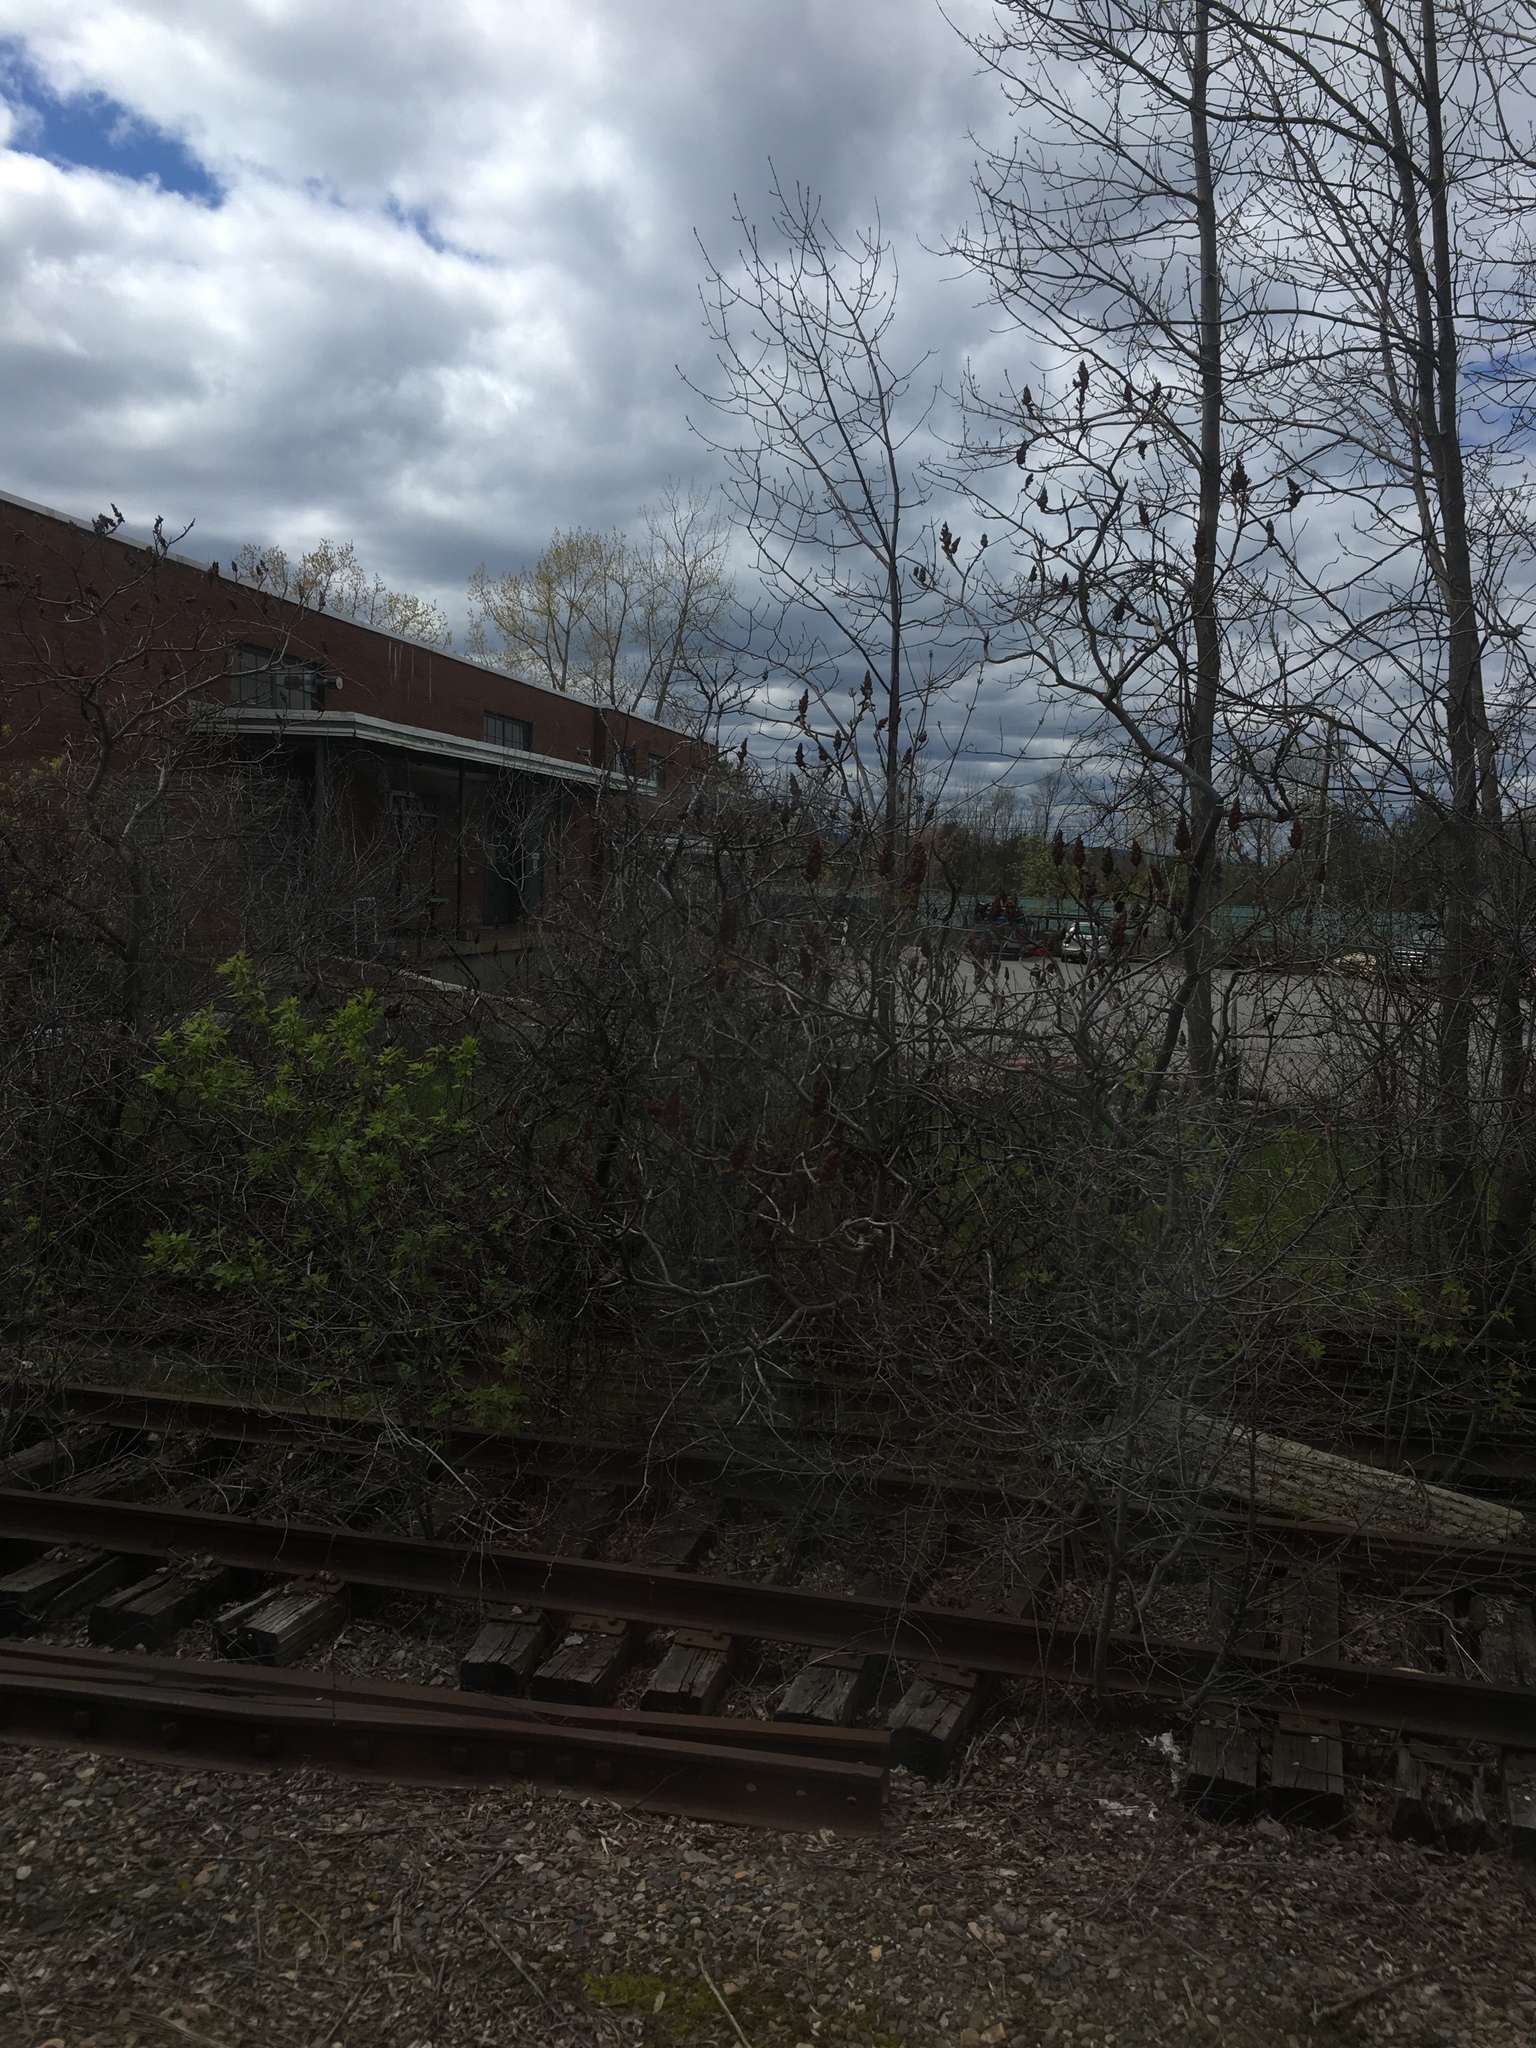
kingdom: Plantae
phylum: Tracheophyta
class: Magnoliopsida
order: Sapindales
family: Anacardiaceae
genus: Rhus
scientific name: Rhus typhina
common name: Staghorn sumac
